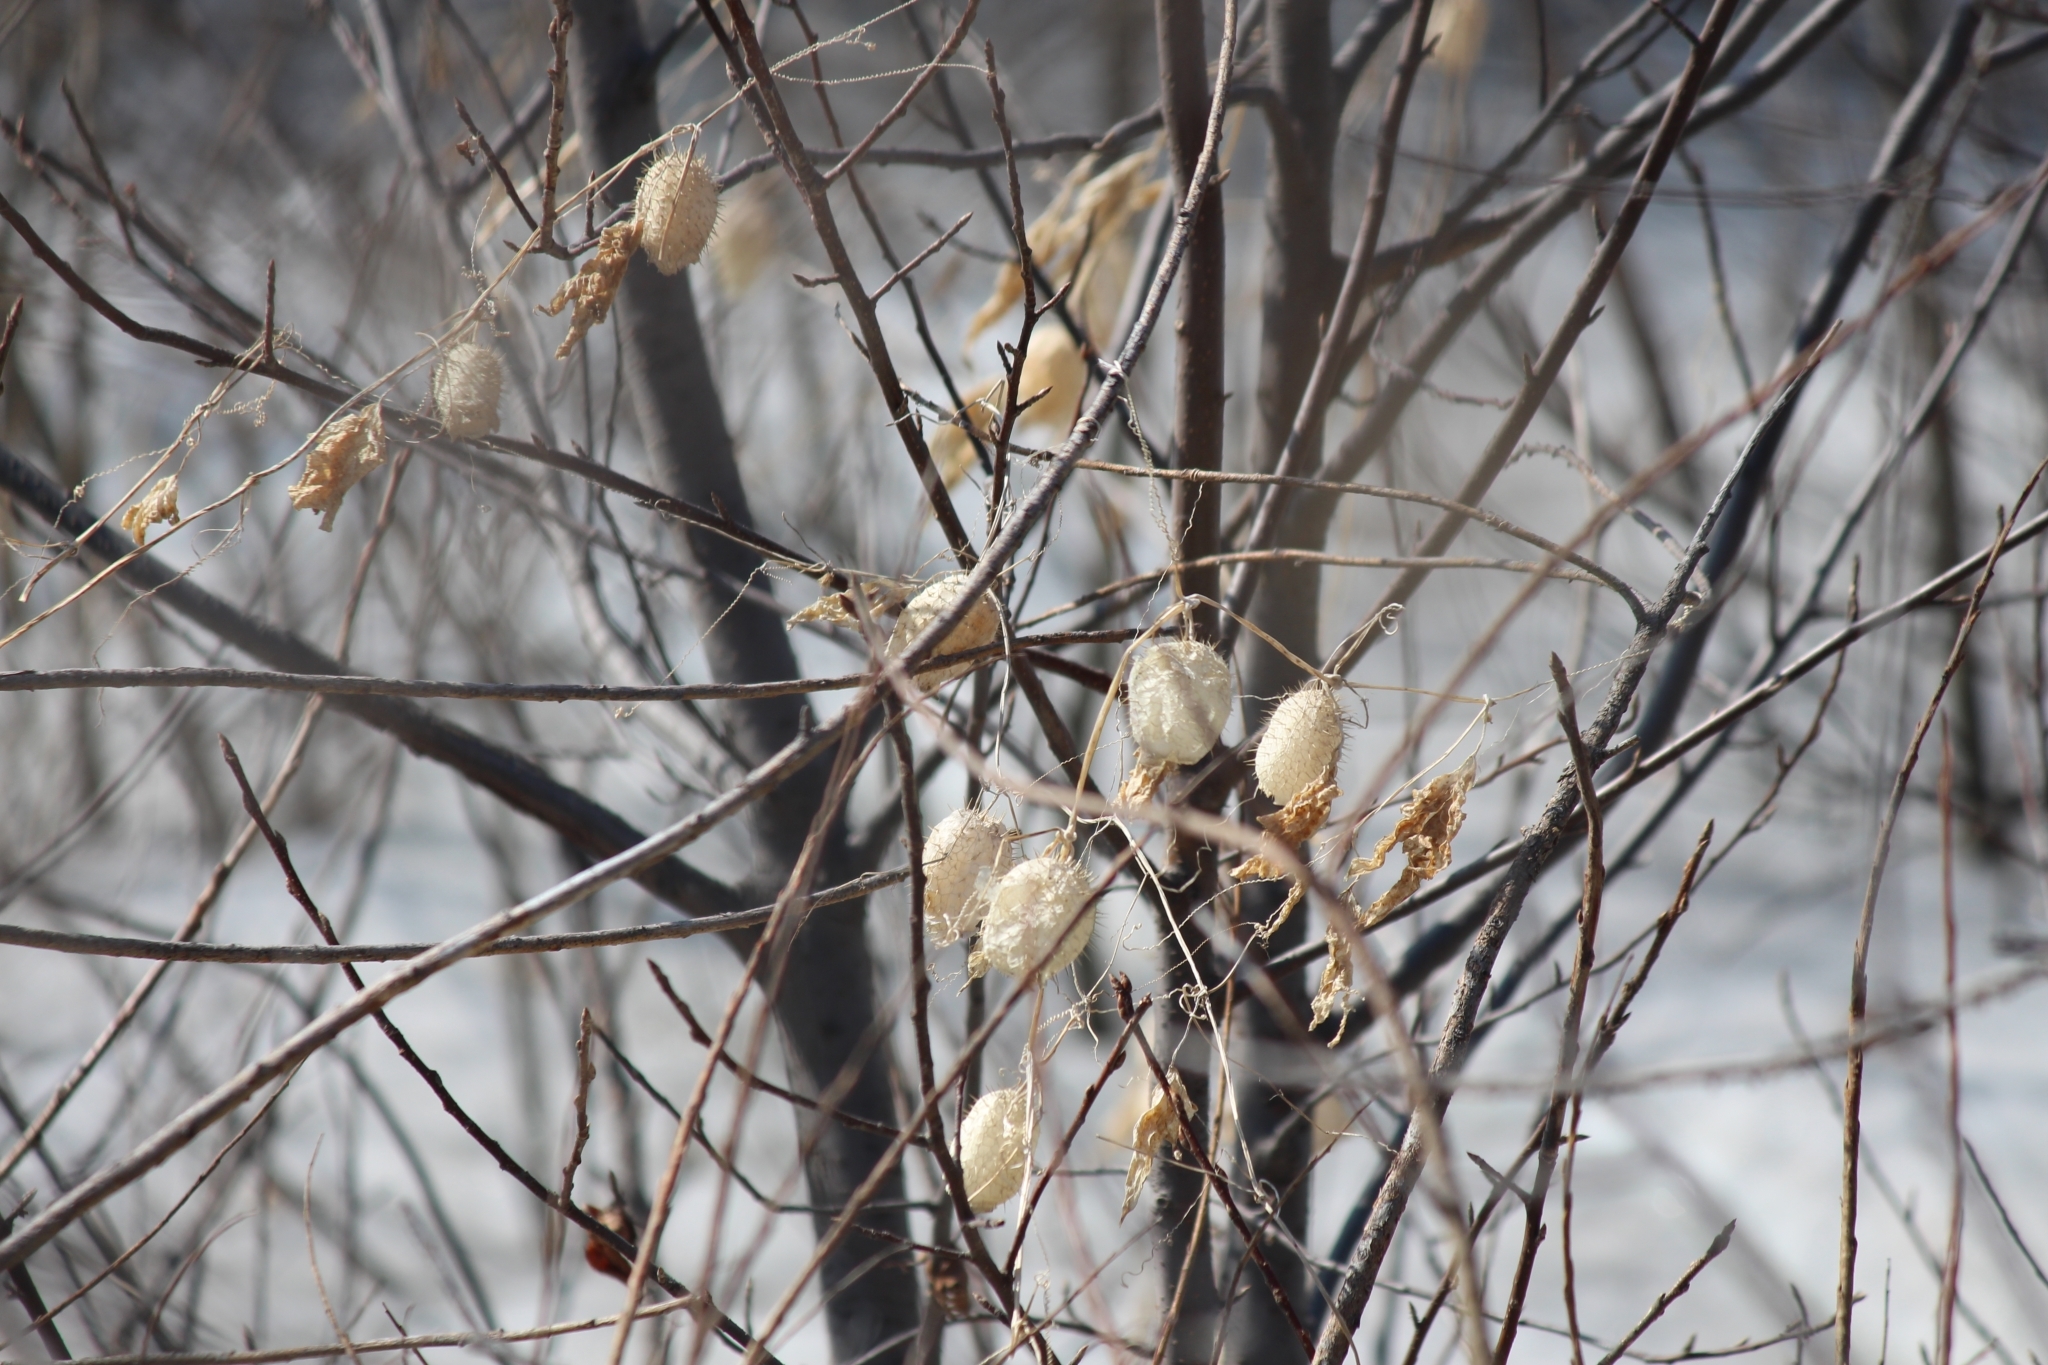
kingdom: Plantae
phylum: Tracheophyta
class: Magnoliopsida
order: Cucurbitales
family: Cucurbitaceae
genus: Echinocystis
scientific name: Echinocystis lobata
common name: Wild cucumber
